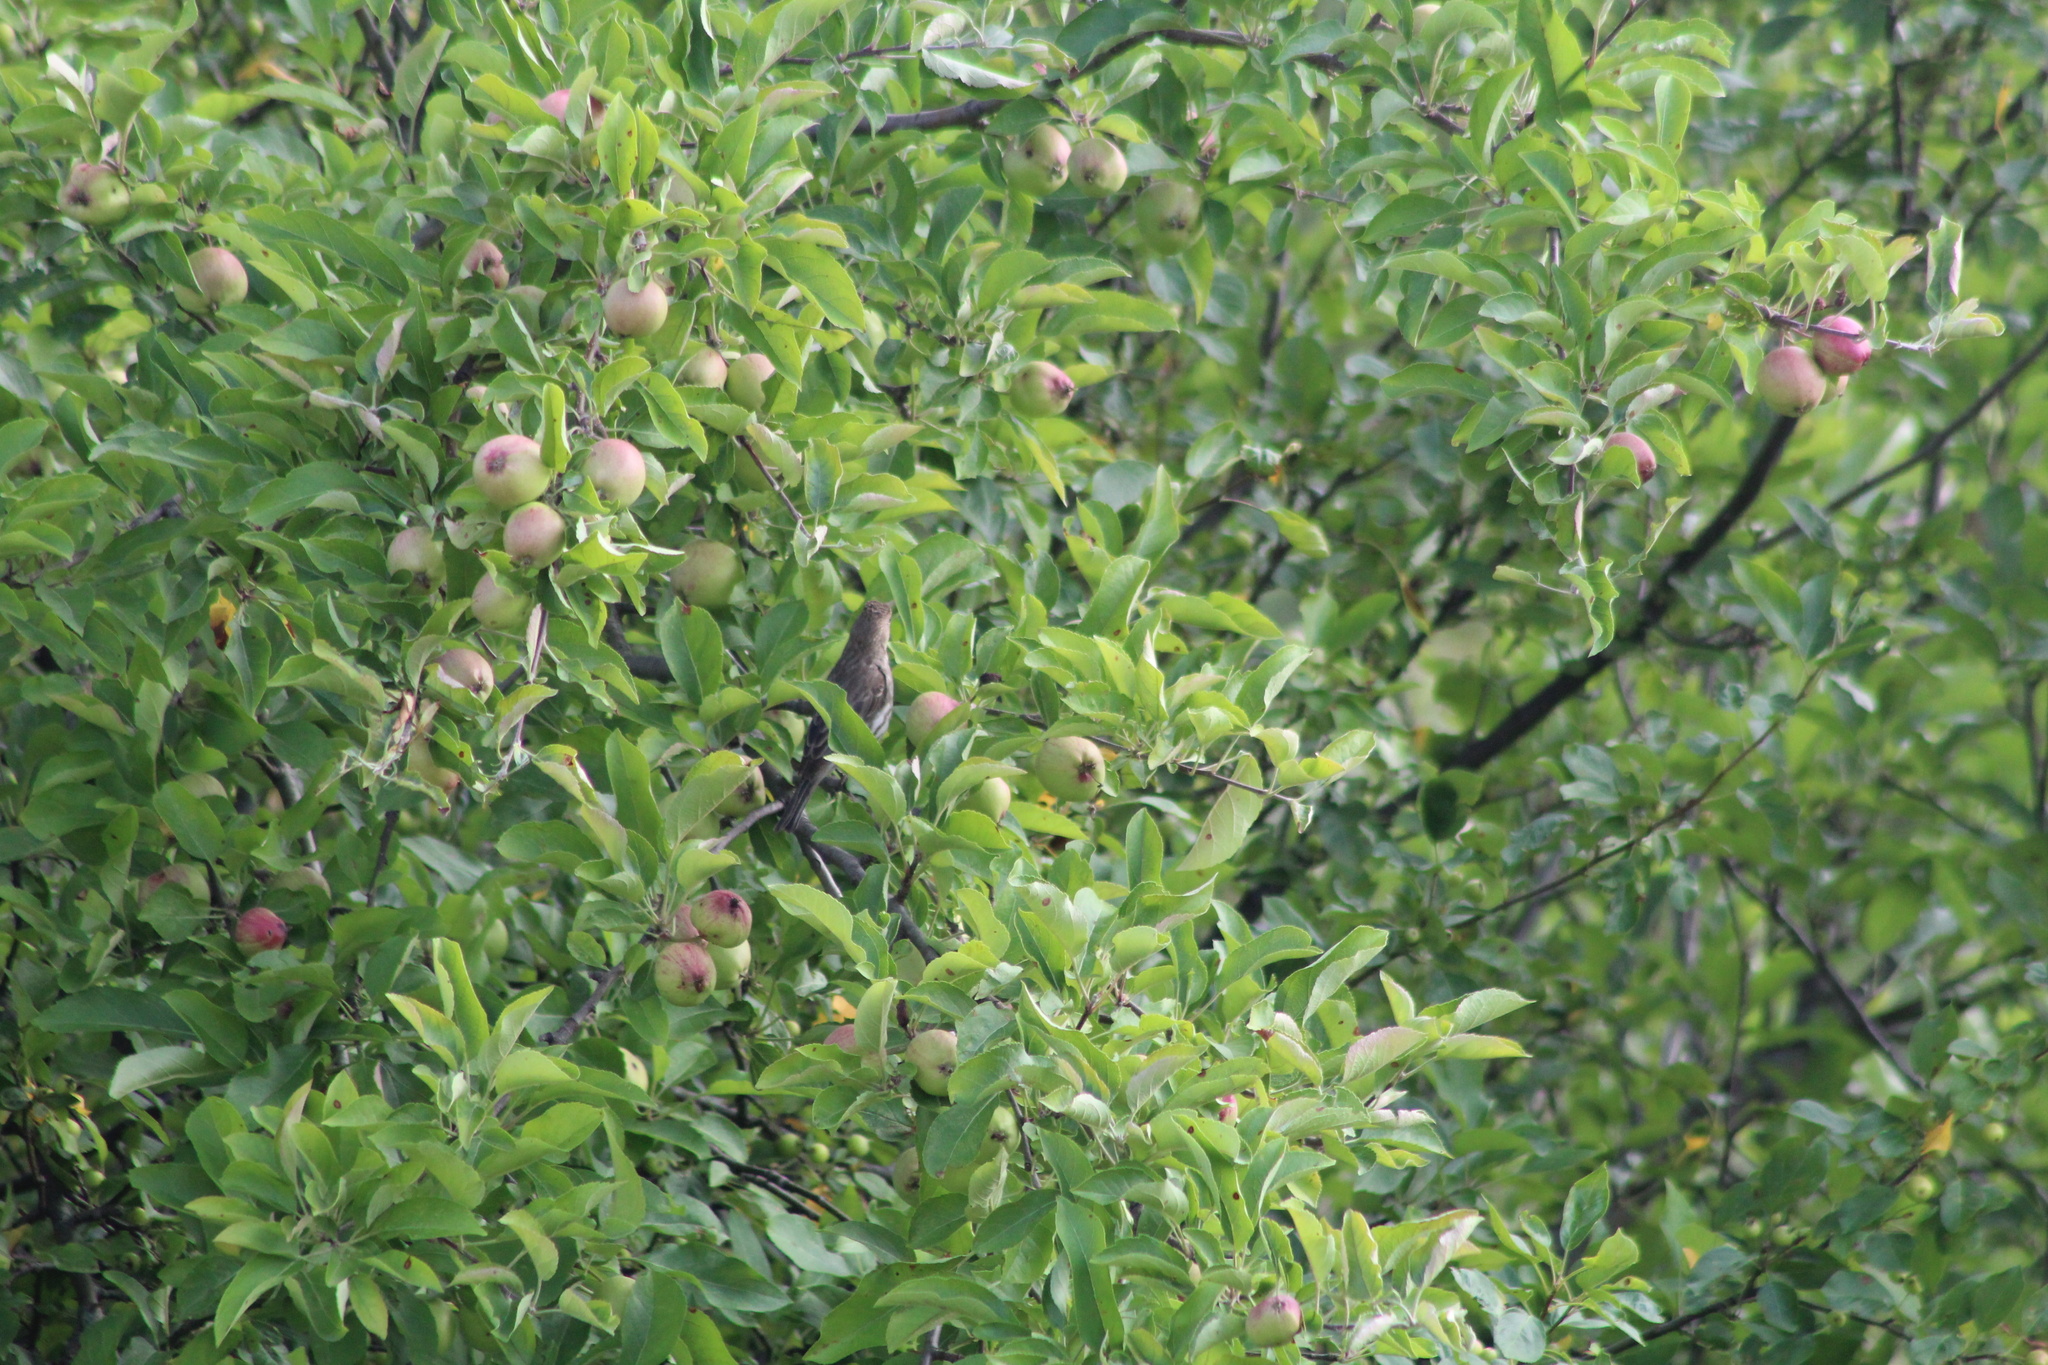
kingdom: Animalia
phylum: Chordata
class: Aves
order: Passeriformes
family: Fringillidae
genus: Haemorhous
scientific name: Haemorhous mexicanus
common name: House finch
